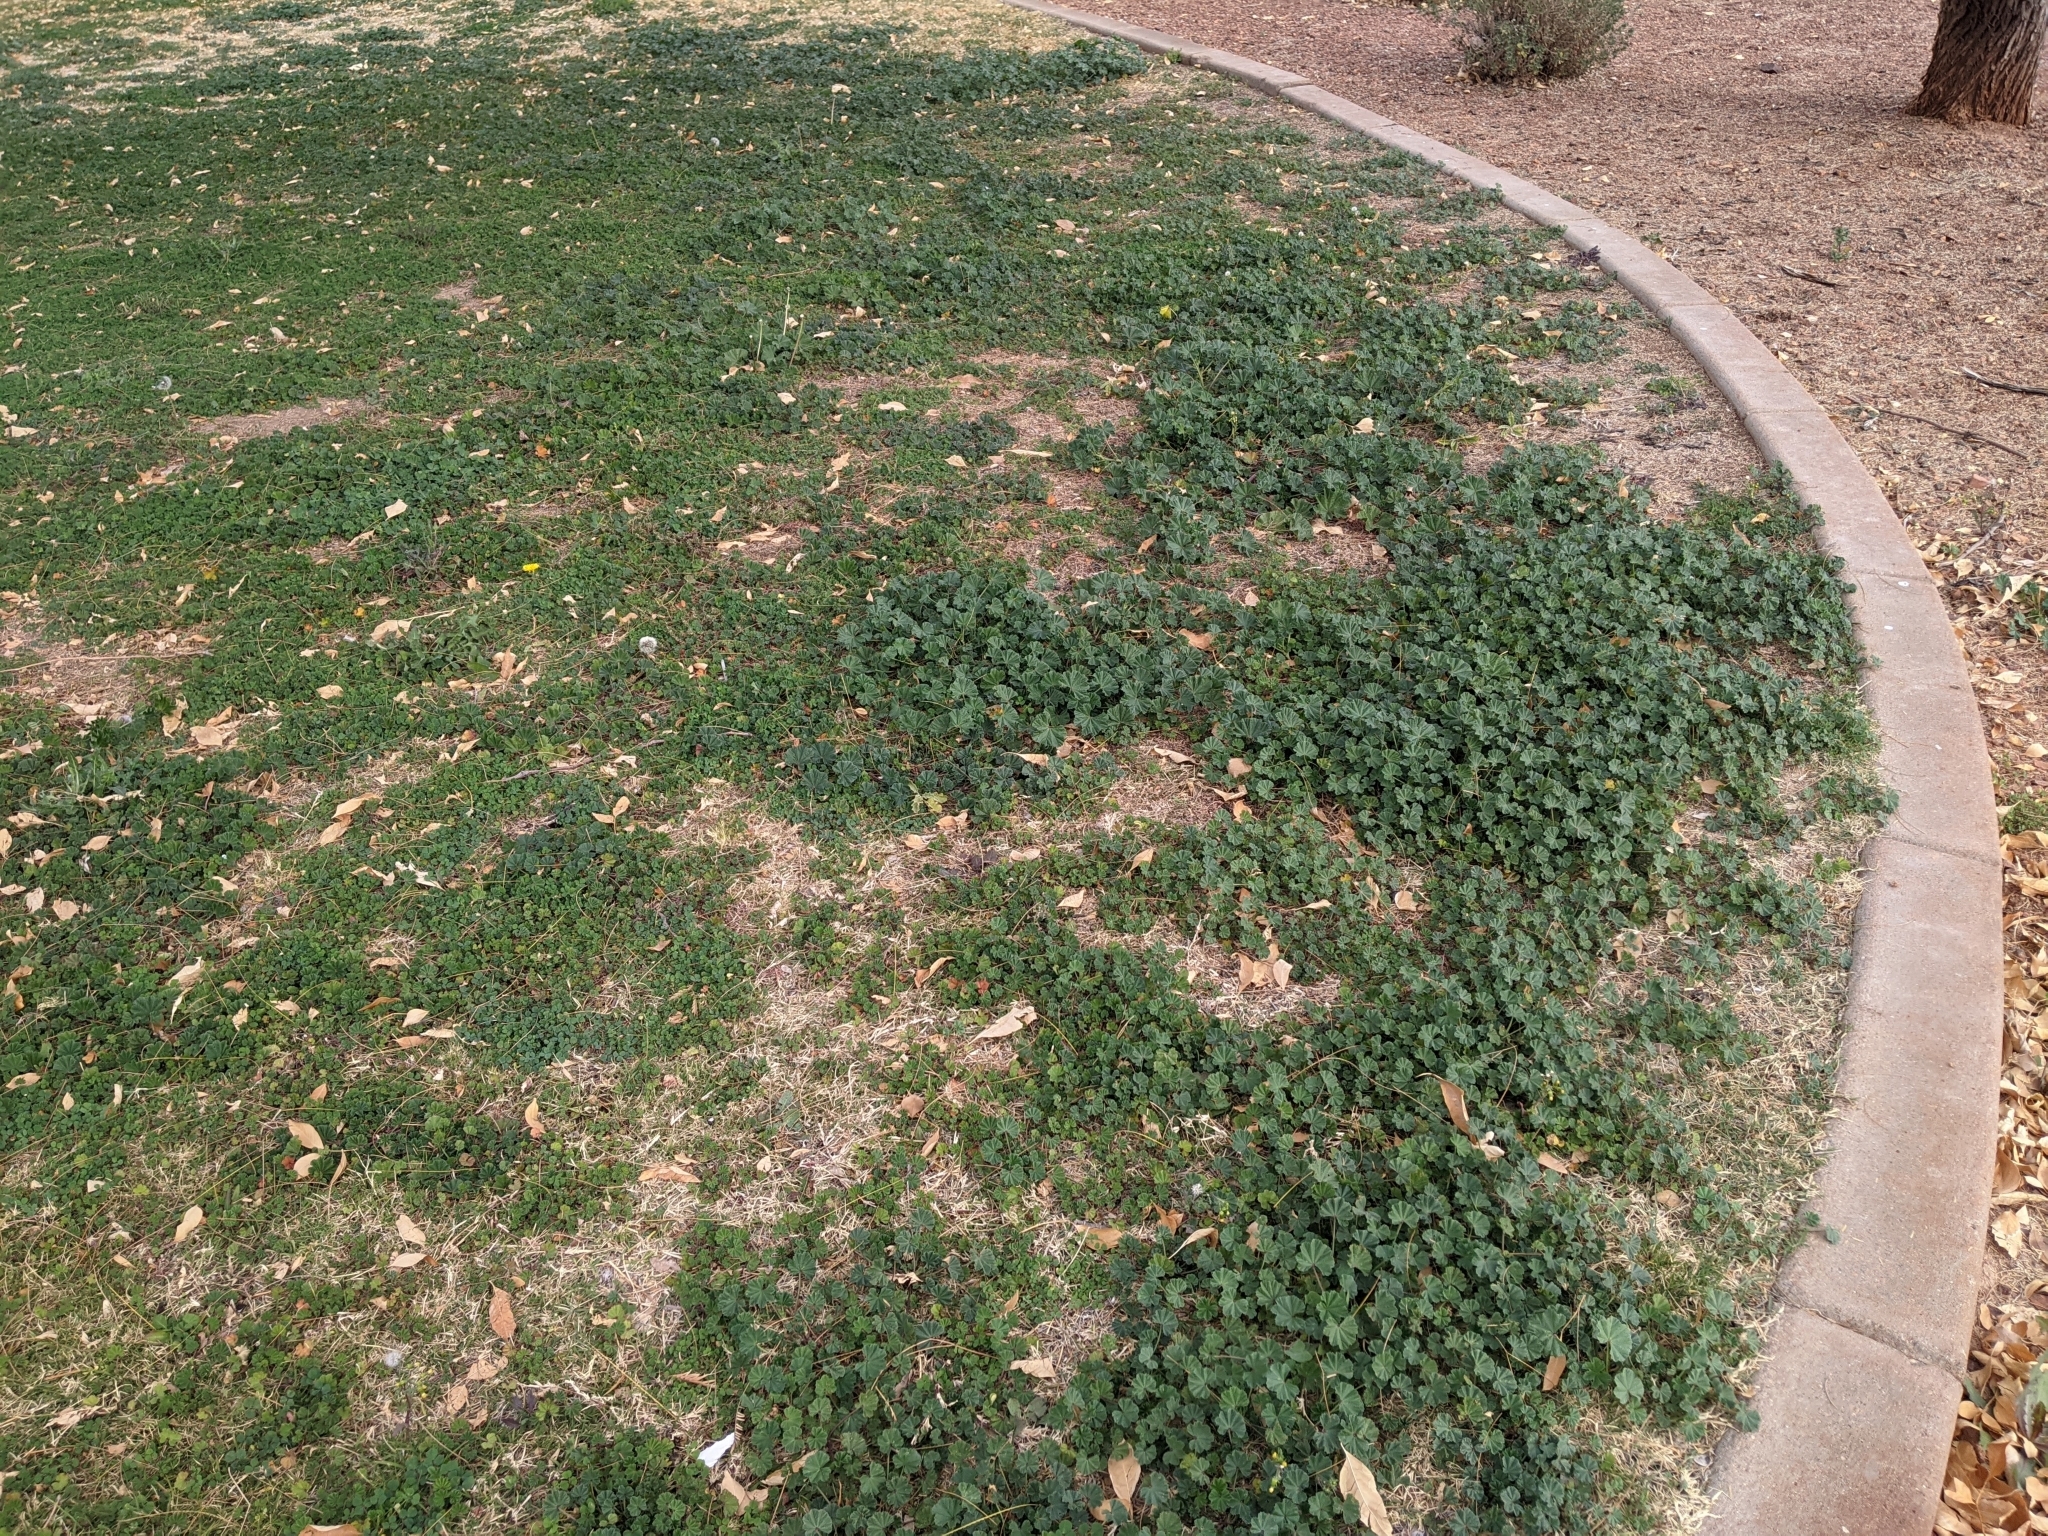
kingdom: Plantae
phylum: Tracheophyta
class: Magnoliopsida
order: Malvales
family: Malvaceae
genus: Malva
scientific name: Malva parviflora
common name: Least mallow
